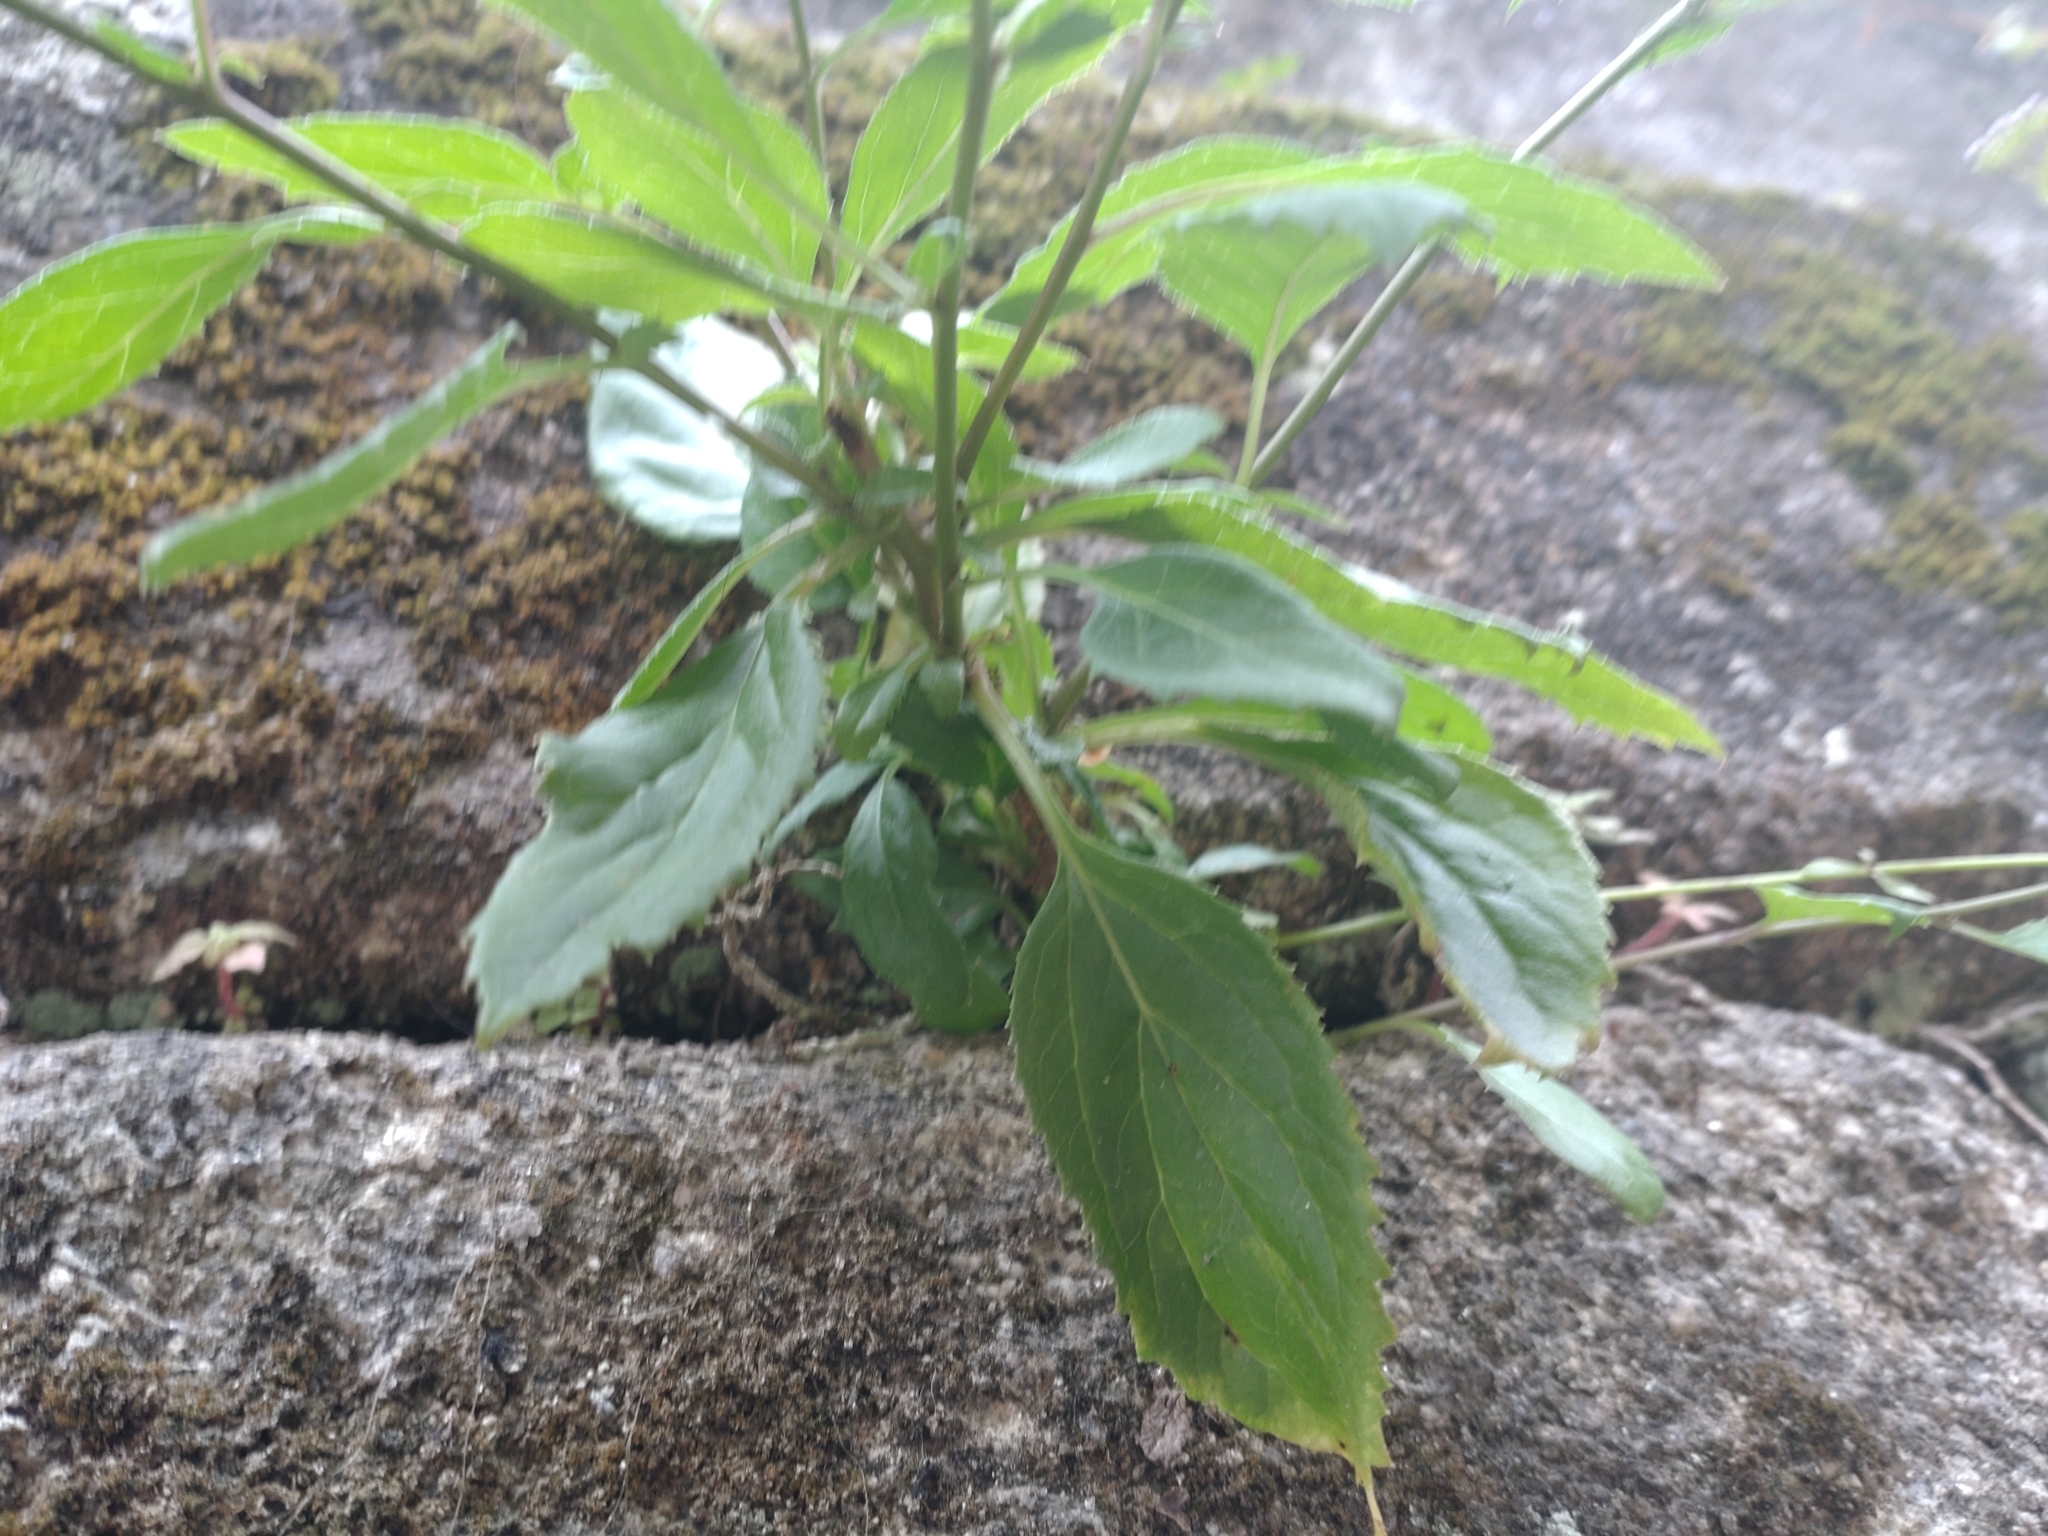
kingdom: Plantae
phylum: Tracheophyta
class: Magnoliopsida
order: Asterales
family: Campanulaceae
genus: Trachelium
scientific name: Trachelium caeruleum
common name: Throatwort
